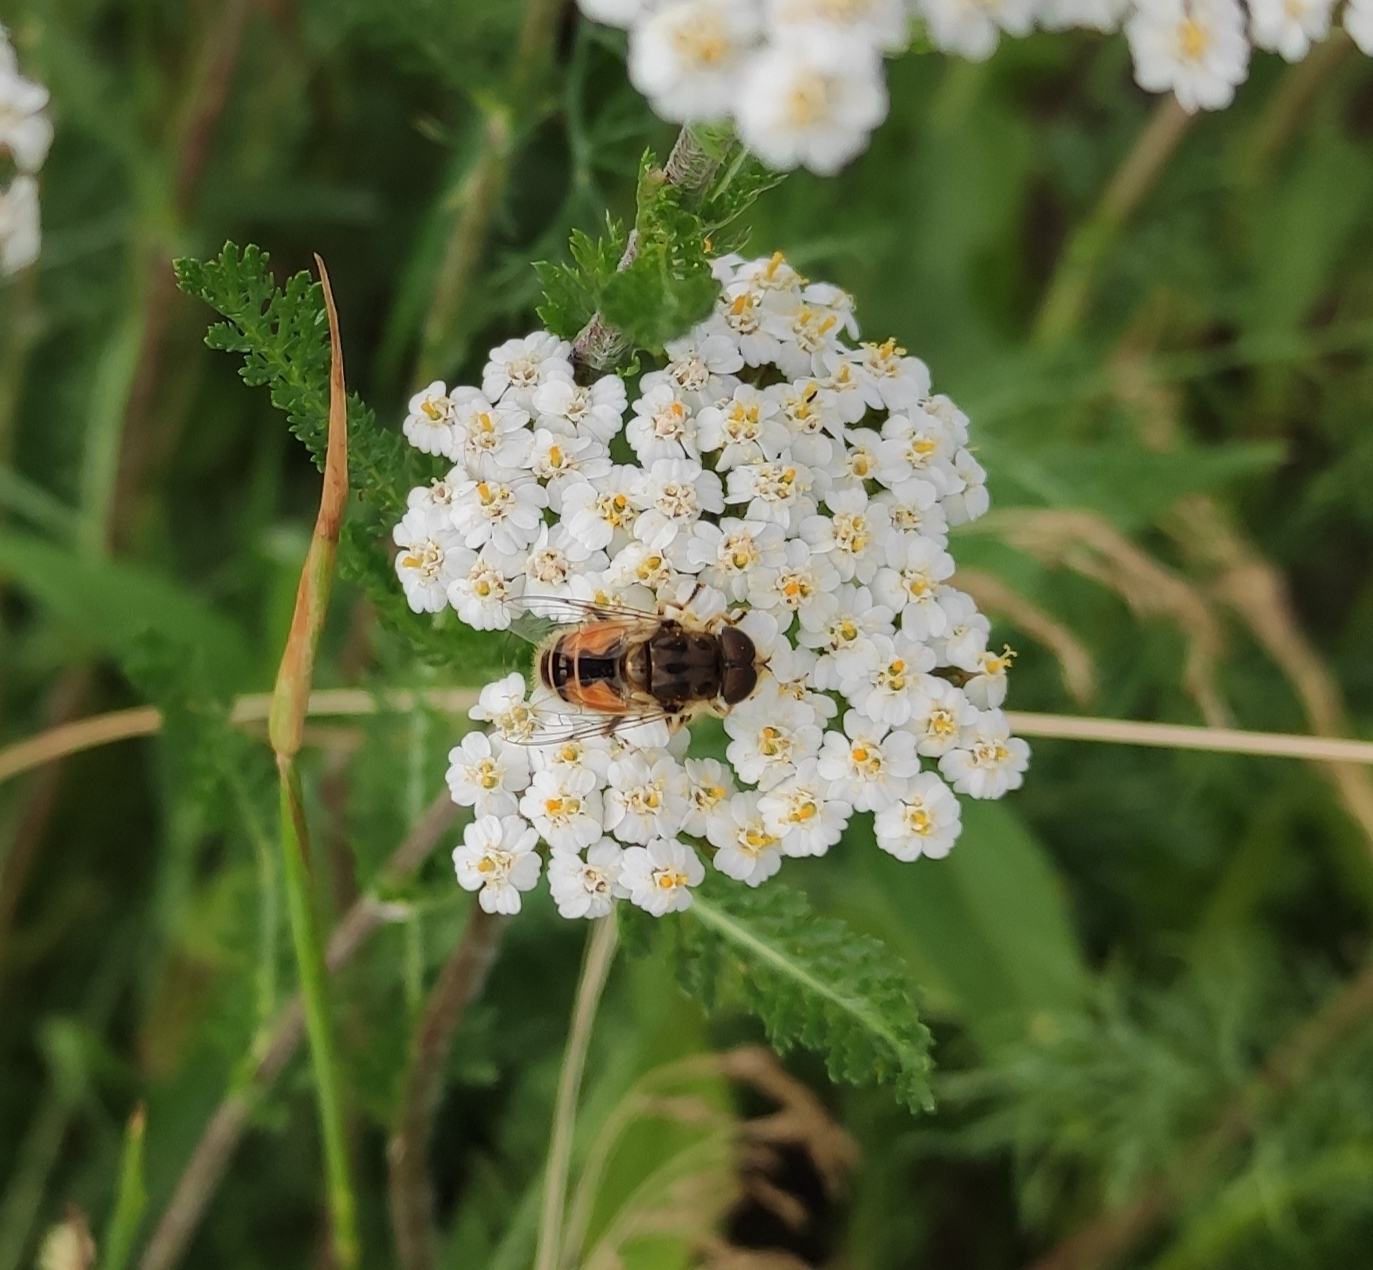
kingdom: Animalia
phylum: Arthropoda
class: Insecta
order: Diptera
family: Syrphidae
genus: Eristalis
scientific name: Eristalis arbustorum
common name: Hover fly
